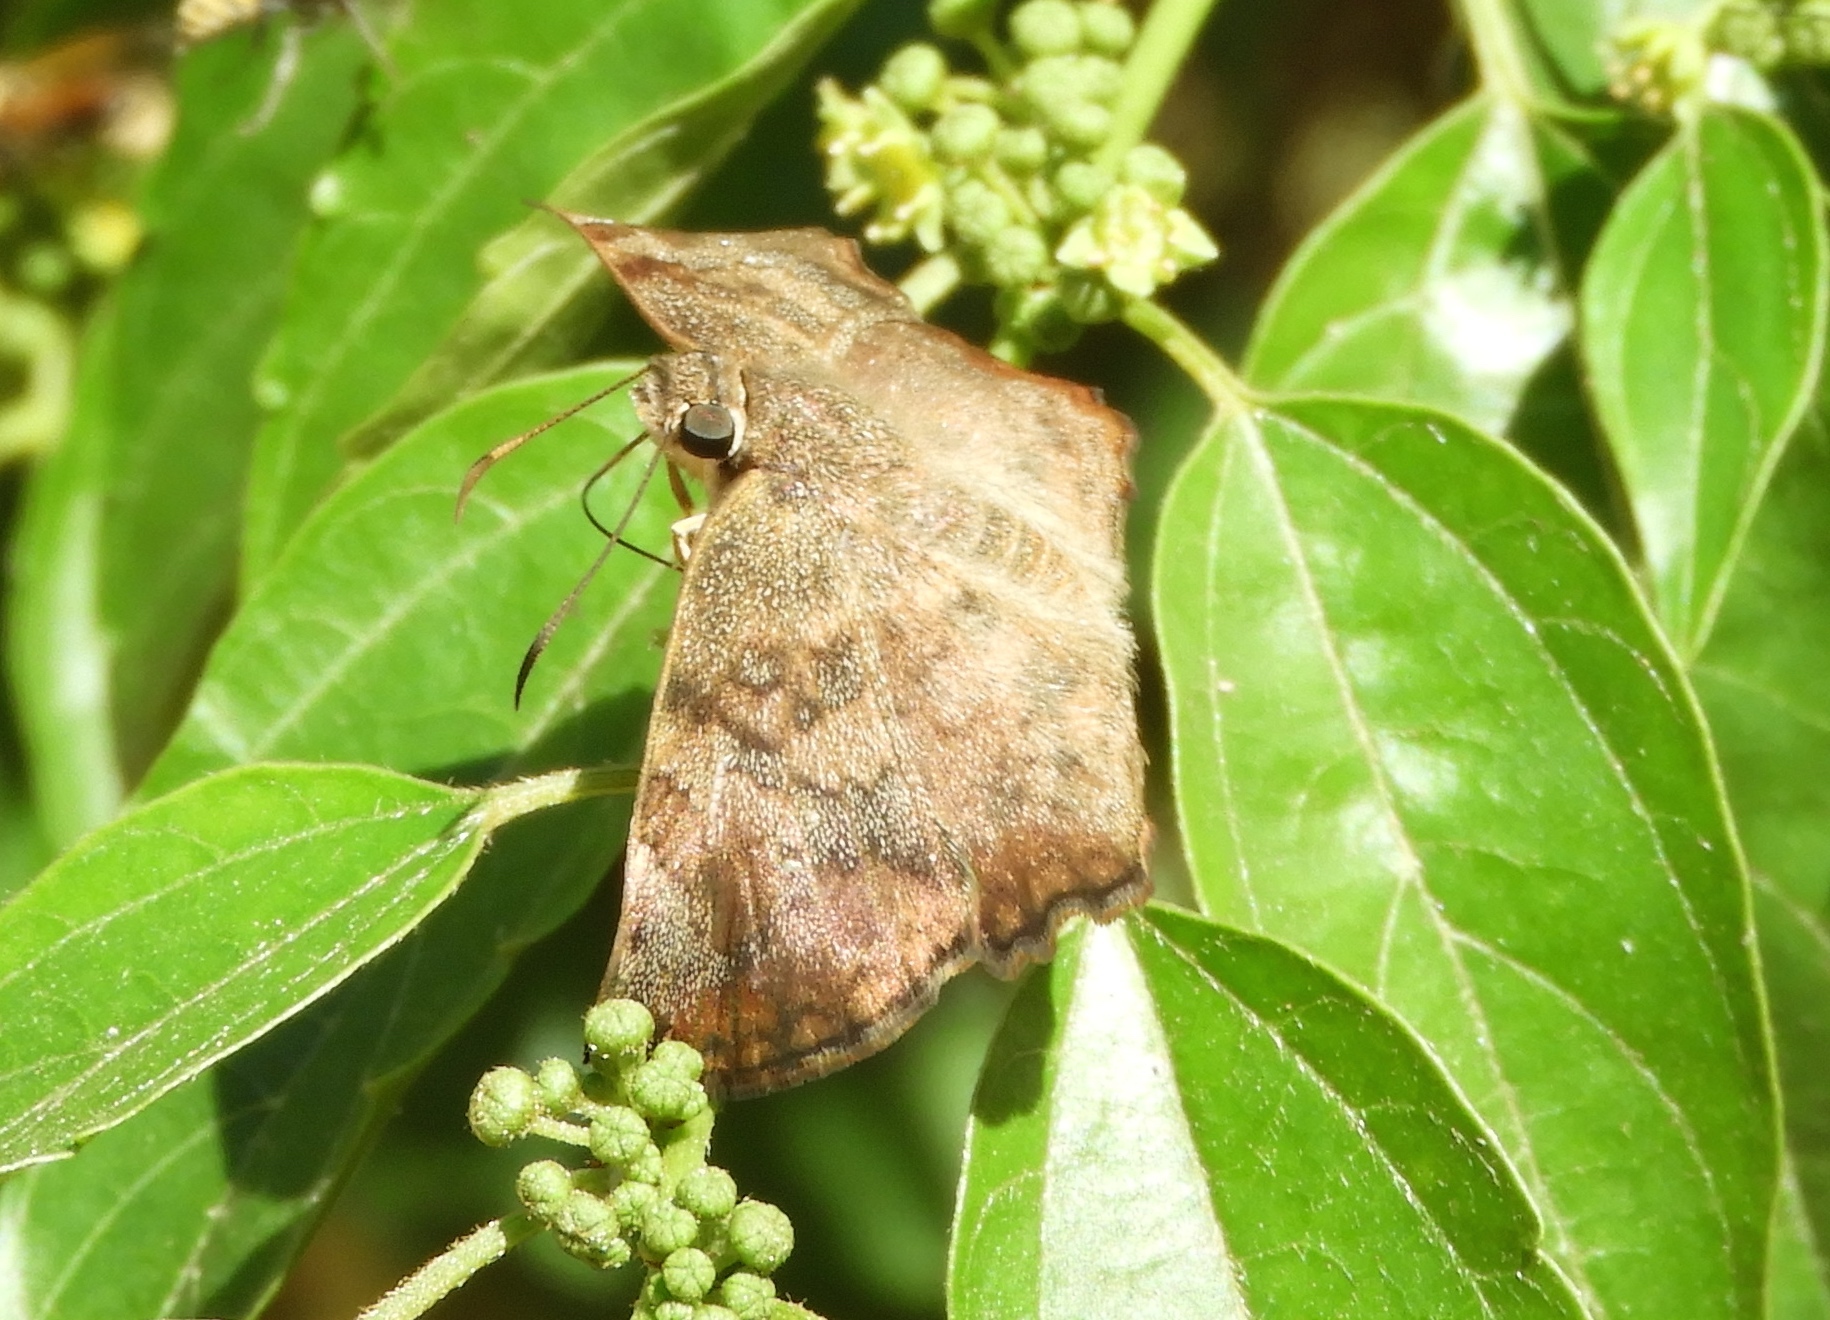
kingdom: Animalia
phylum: Arthropoda
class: Insecta
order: Lepidoptera
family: Hesperiidae
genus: Antigonus
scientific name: Antigonus erosus
